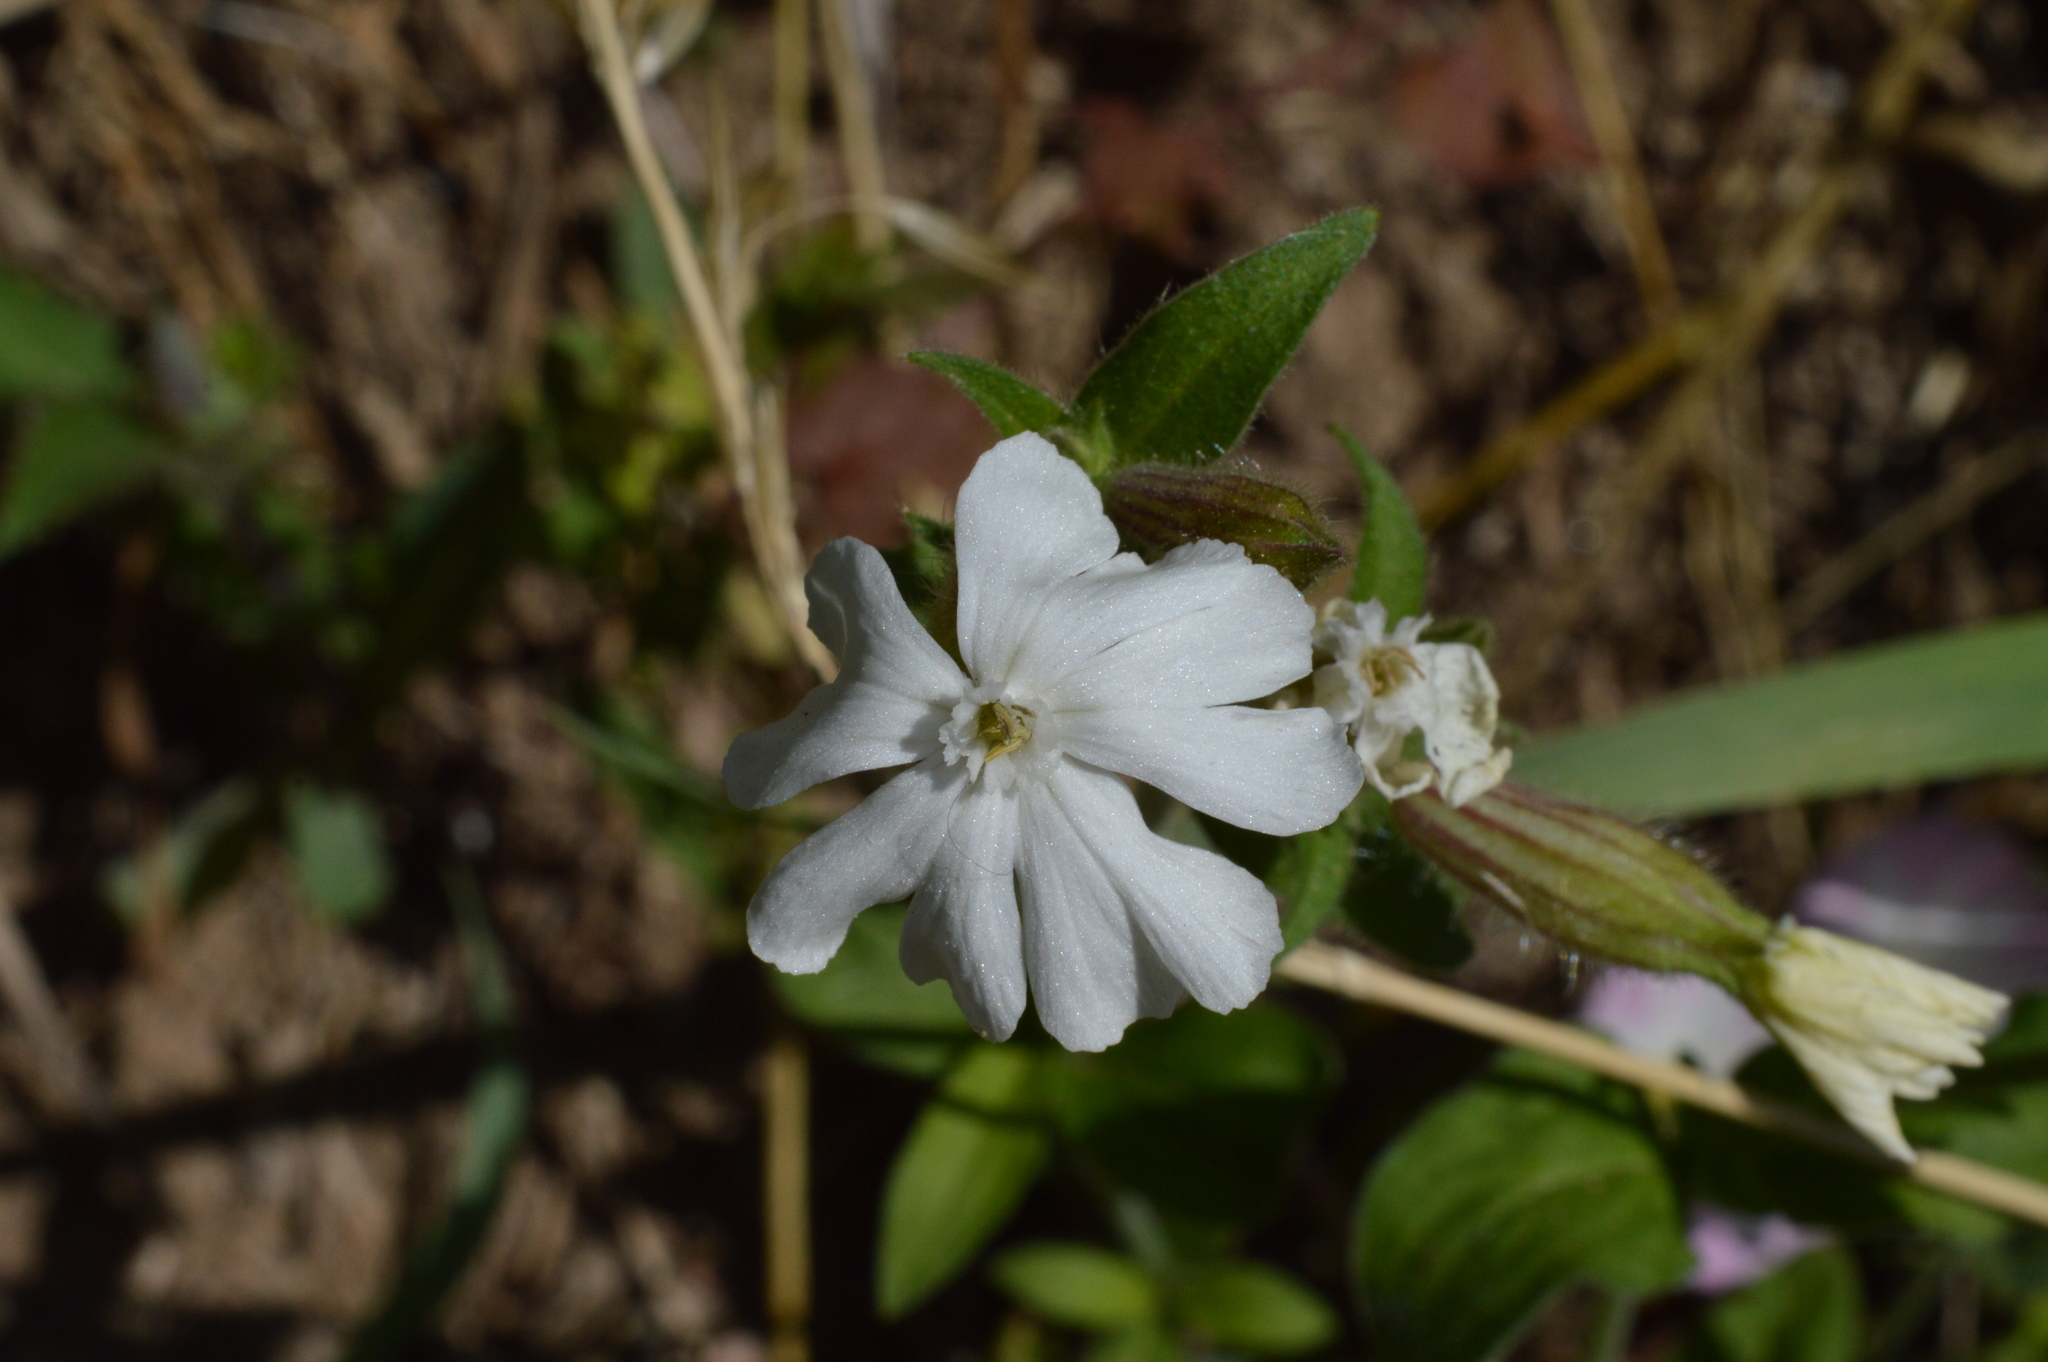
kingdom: Plantae
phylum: Tracheophyta
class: Magnoliopsida
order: Caryophyllales
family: Caryophyllaceae
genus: Silene
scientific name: Silene latifolia
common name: White campion
